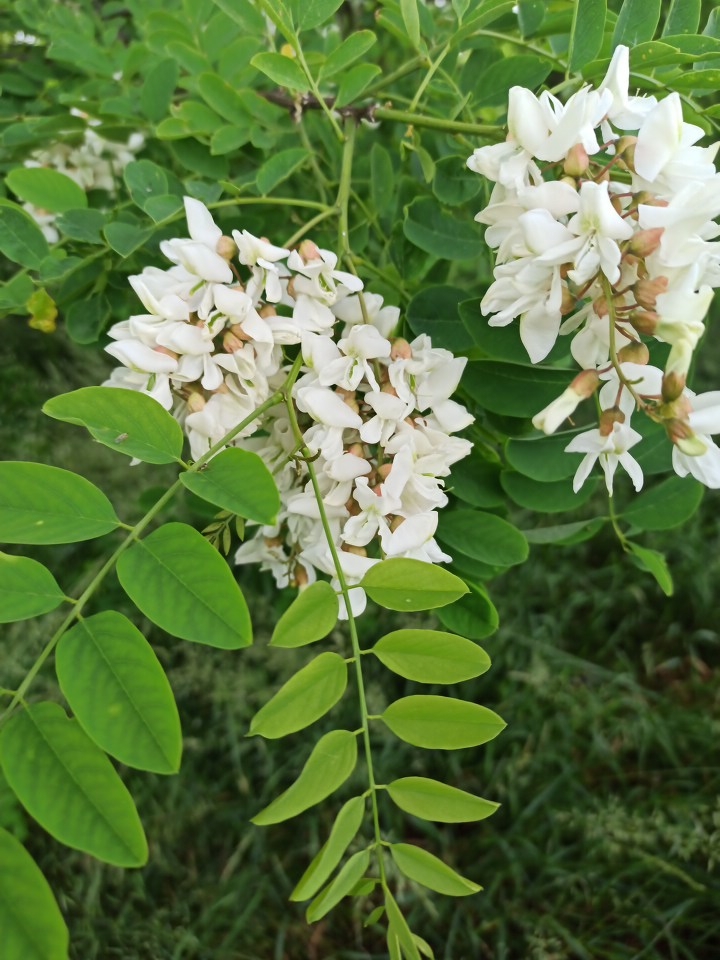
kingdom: Plantae
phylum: Tracheophyta
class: Magnoliopsida
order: Fabales
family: Fabaceae
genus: Robinia
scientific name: Robinia pseudoacacia
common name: Black locust
